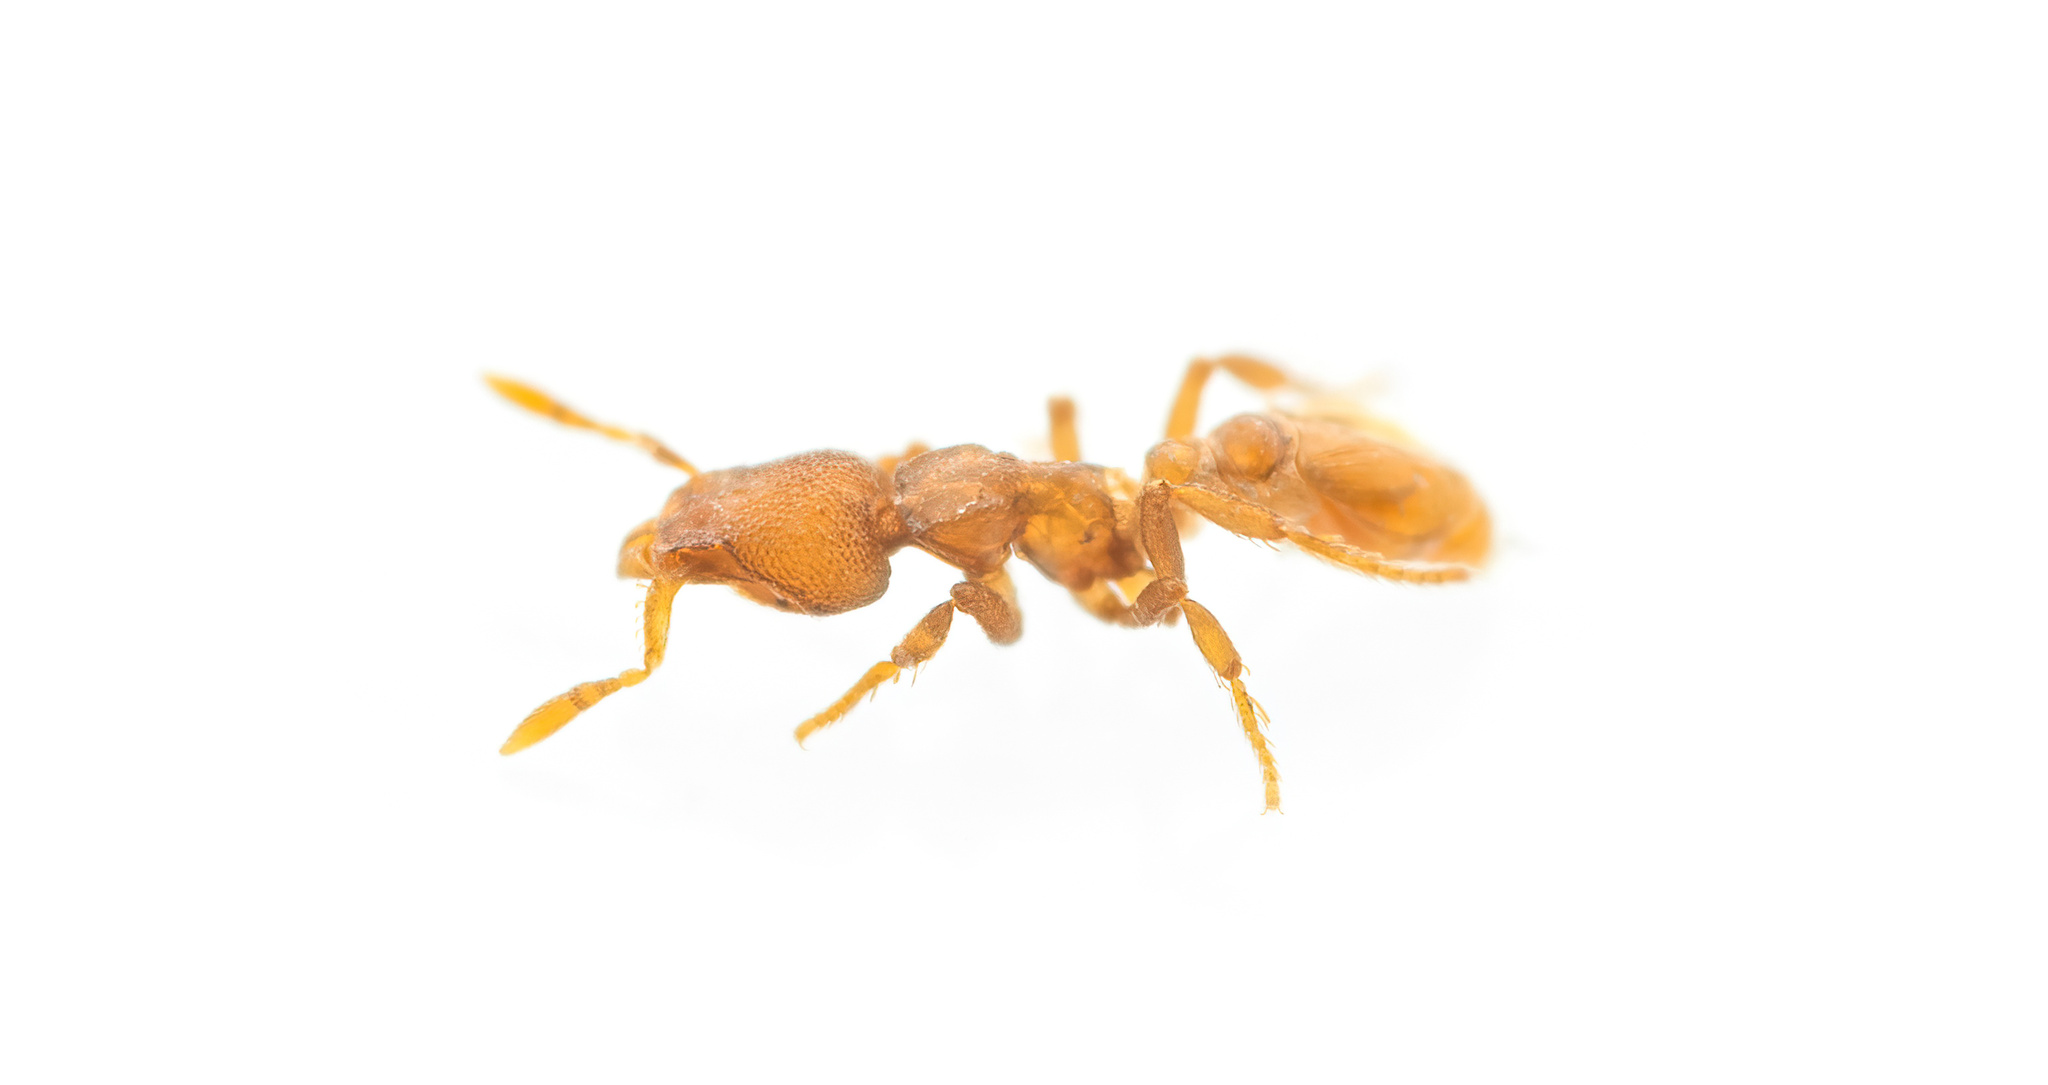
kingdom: Animalia
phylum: Arthropoda
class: Insecta
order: Hymenoptera
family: Formicidae
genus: Pyramica
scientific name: Pyramica membranifera
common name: Ant
